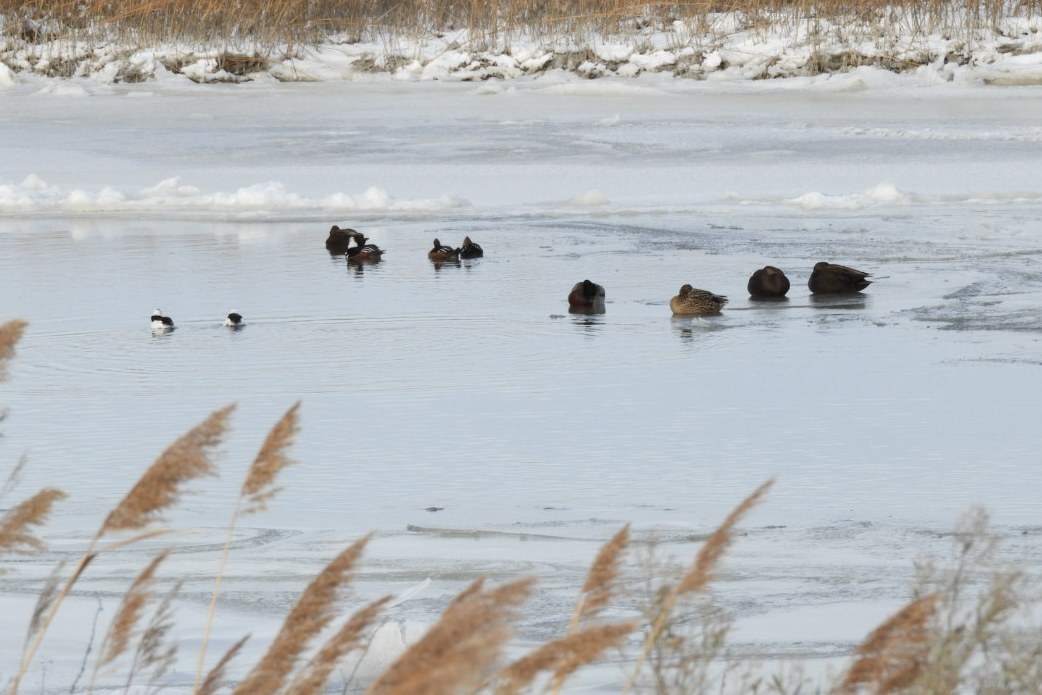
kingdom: Animalia
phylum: Chordata
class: Aves
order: Anseriformes
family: Anatidae
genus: Lophodytes
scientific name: Lophodytes cucullatus
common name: Hooded merganser
